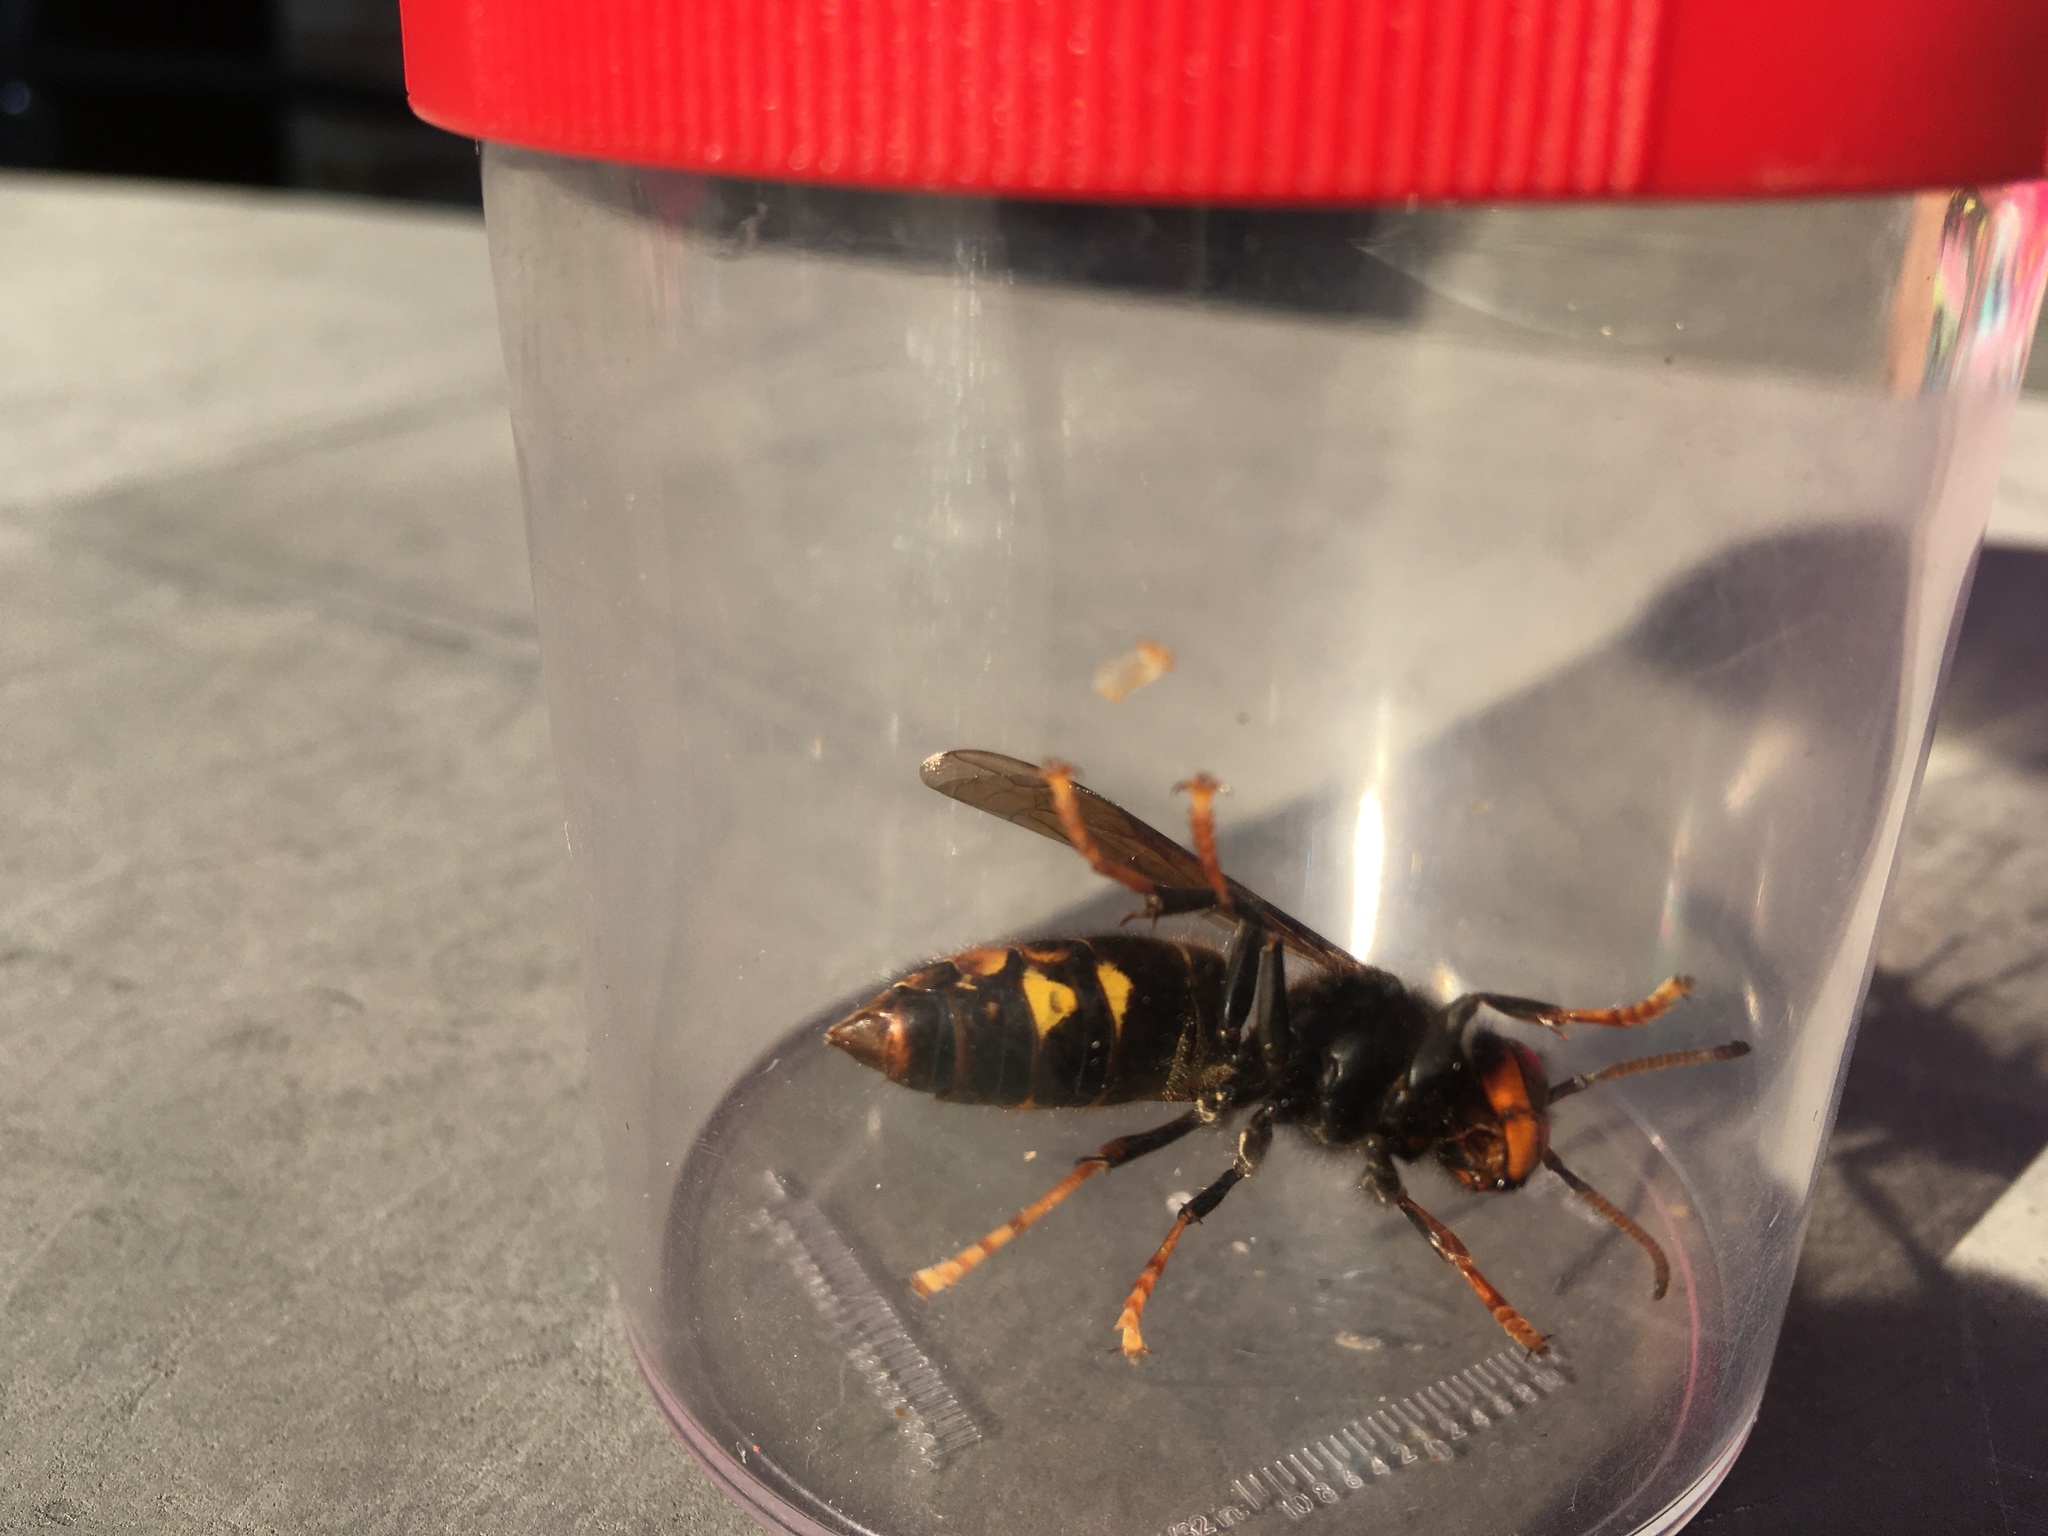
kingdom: Animalia
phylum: Arthropoda
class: Insecta
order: Hymenoptera
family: Vespidae
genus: Vespa
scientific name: Vespa velutina
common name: Asian hornet
